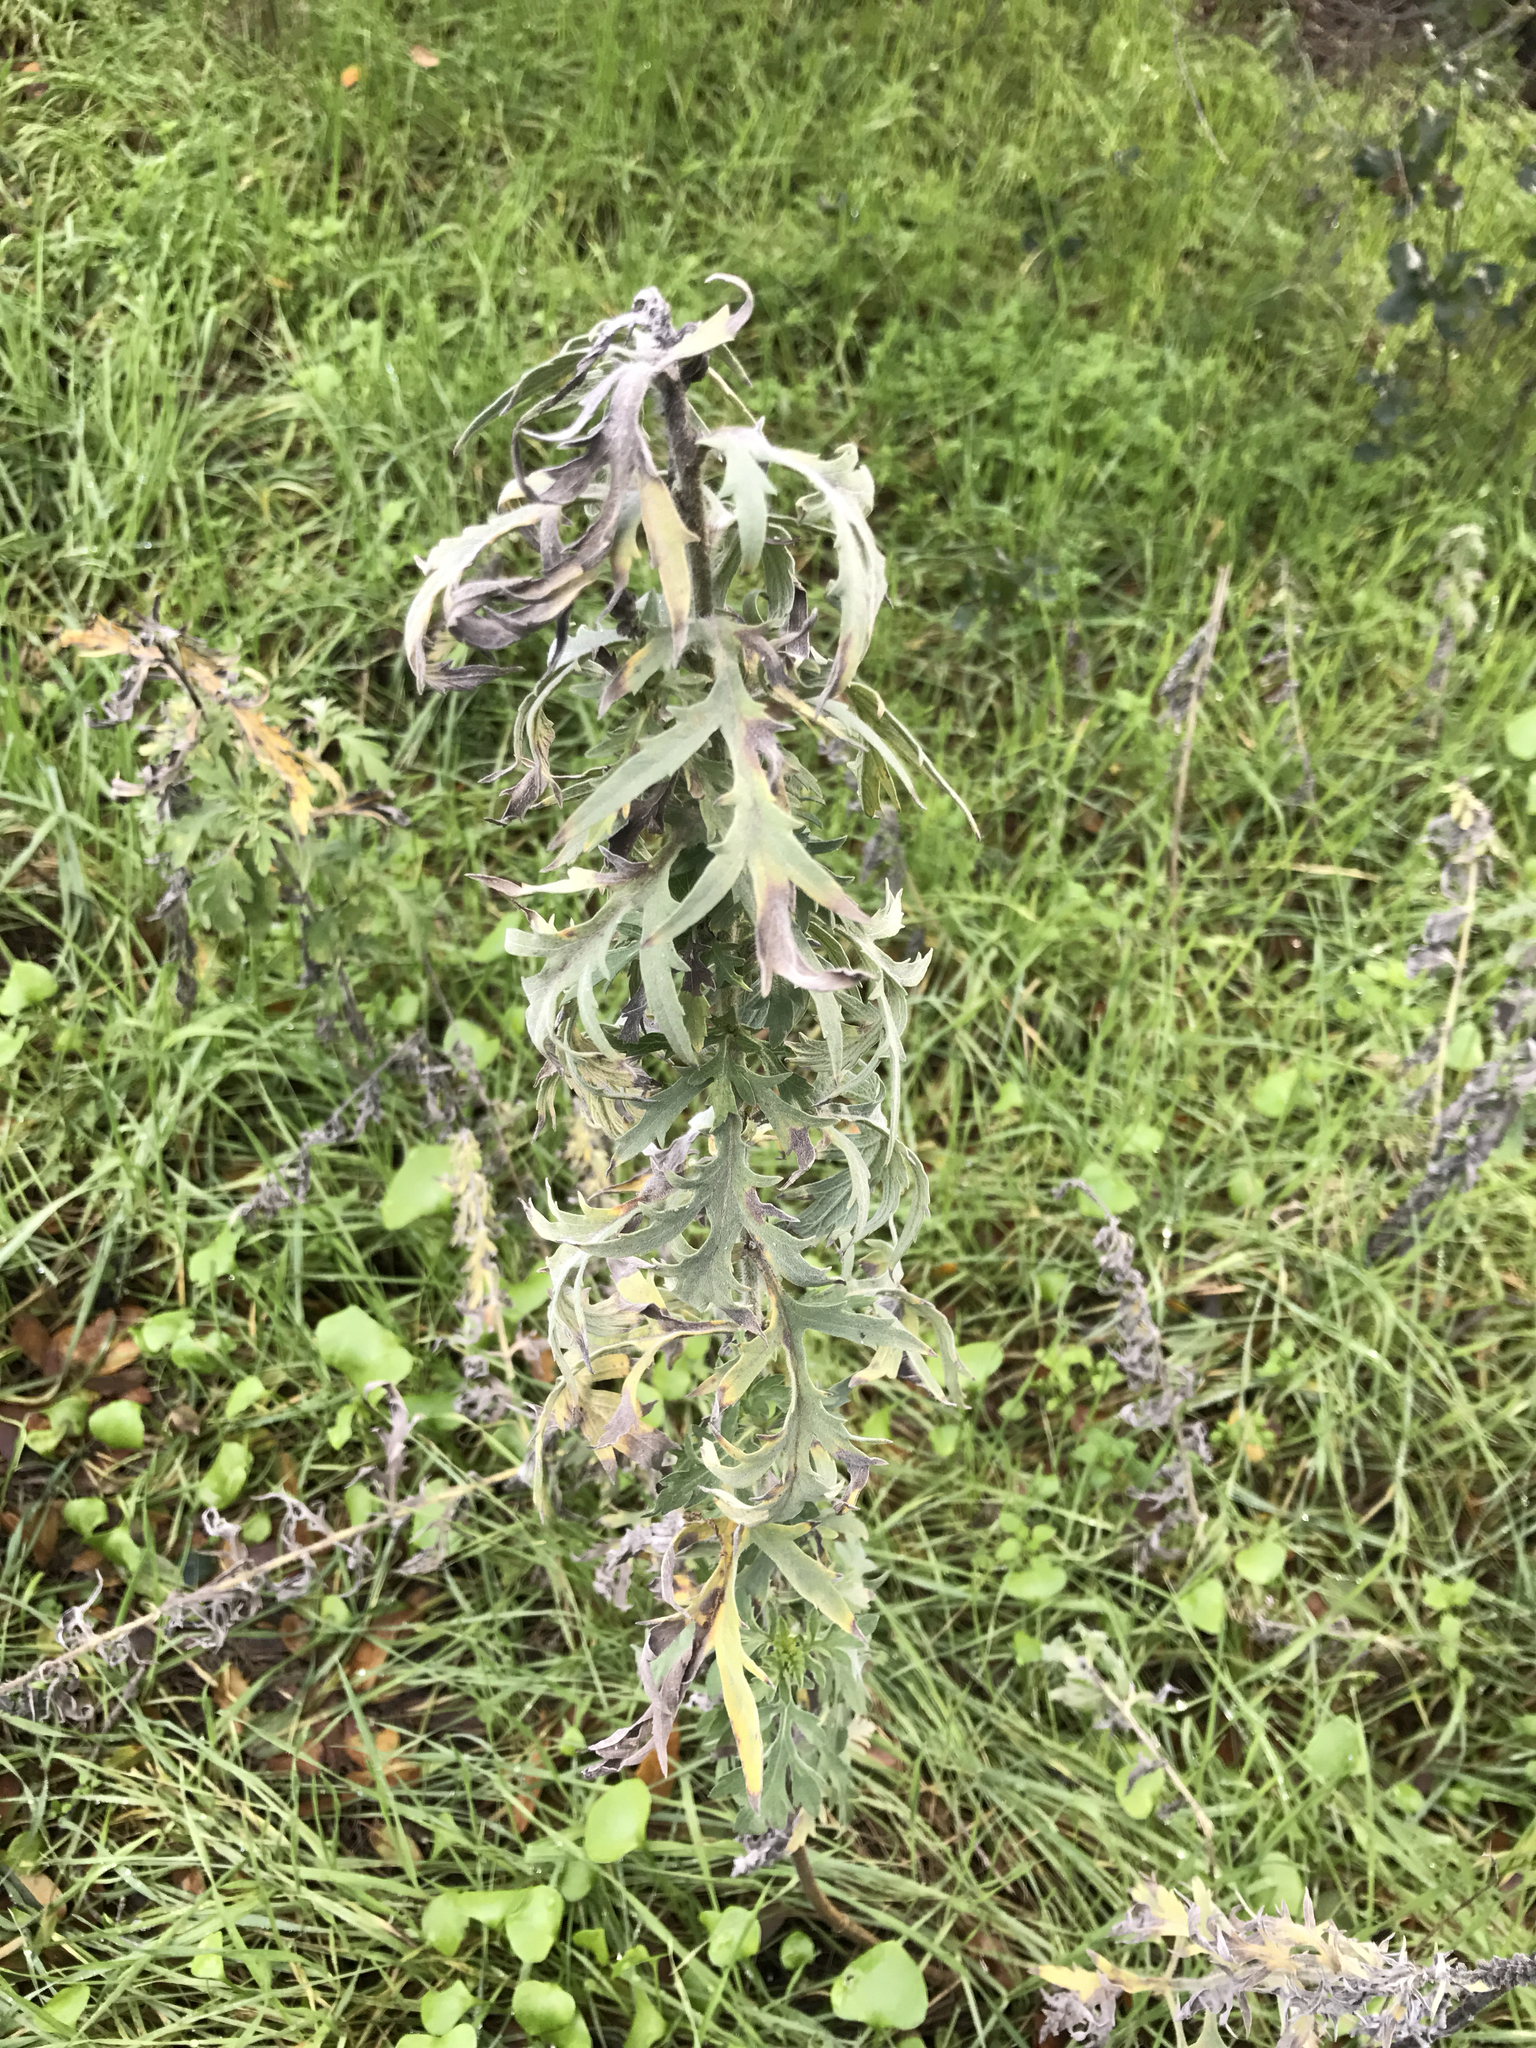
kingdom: Plantae
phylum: Tracheophyta
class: Magnoliopsida
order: Asterales
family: Asteraceae
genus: Ambrosia
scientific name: Ambrosia psilostachya
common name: Perennial ragweed
